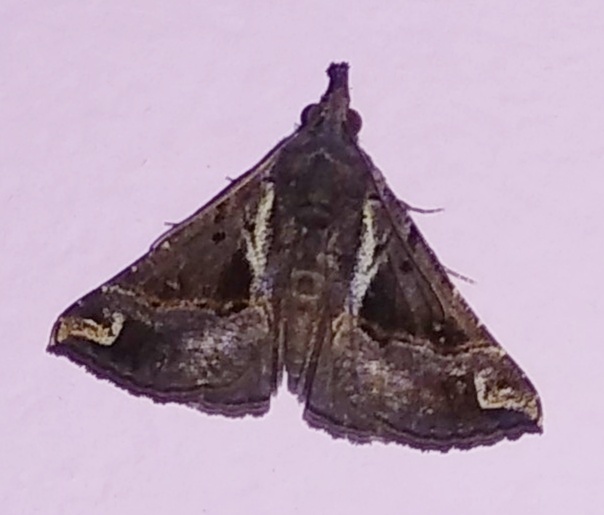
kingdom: Animalia
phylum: Arthropoda
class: Insecta
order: Lepidoptera
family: Erebidae
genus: Hypena
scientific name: Hypena commixtalis
